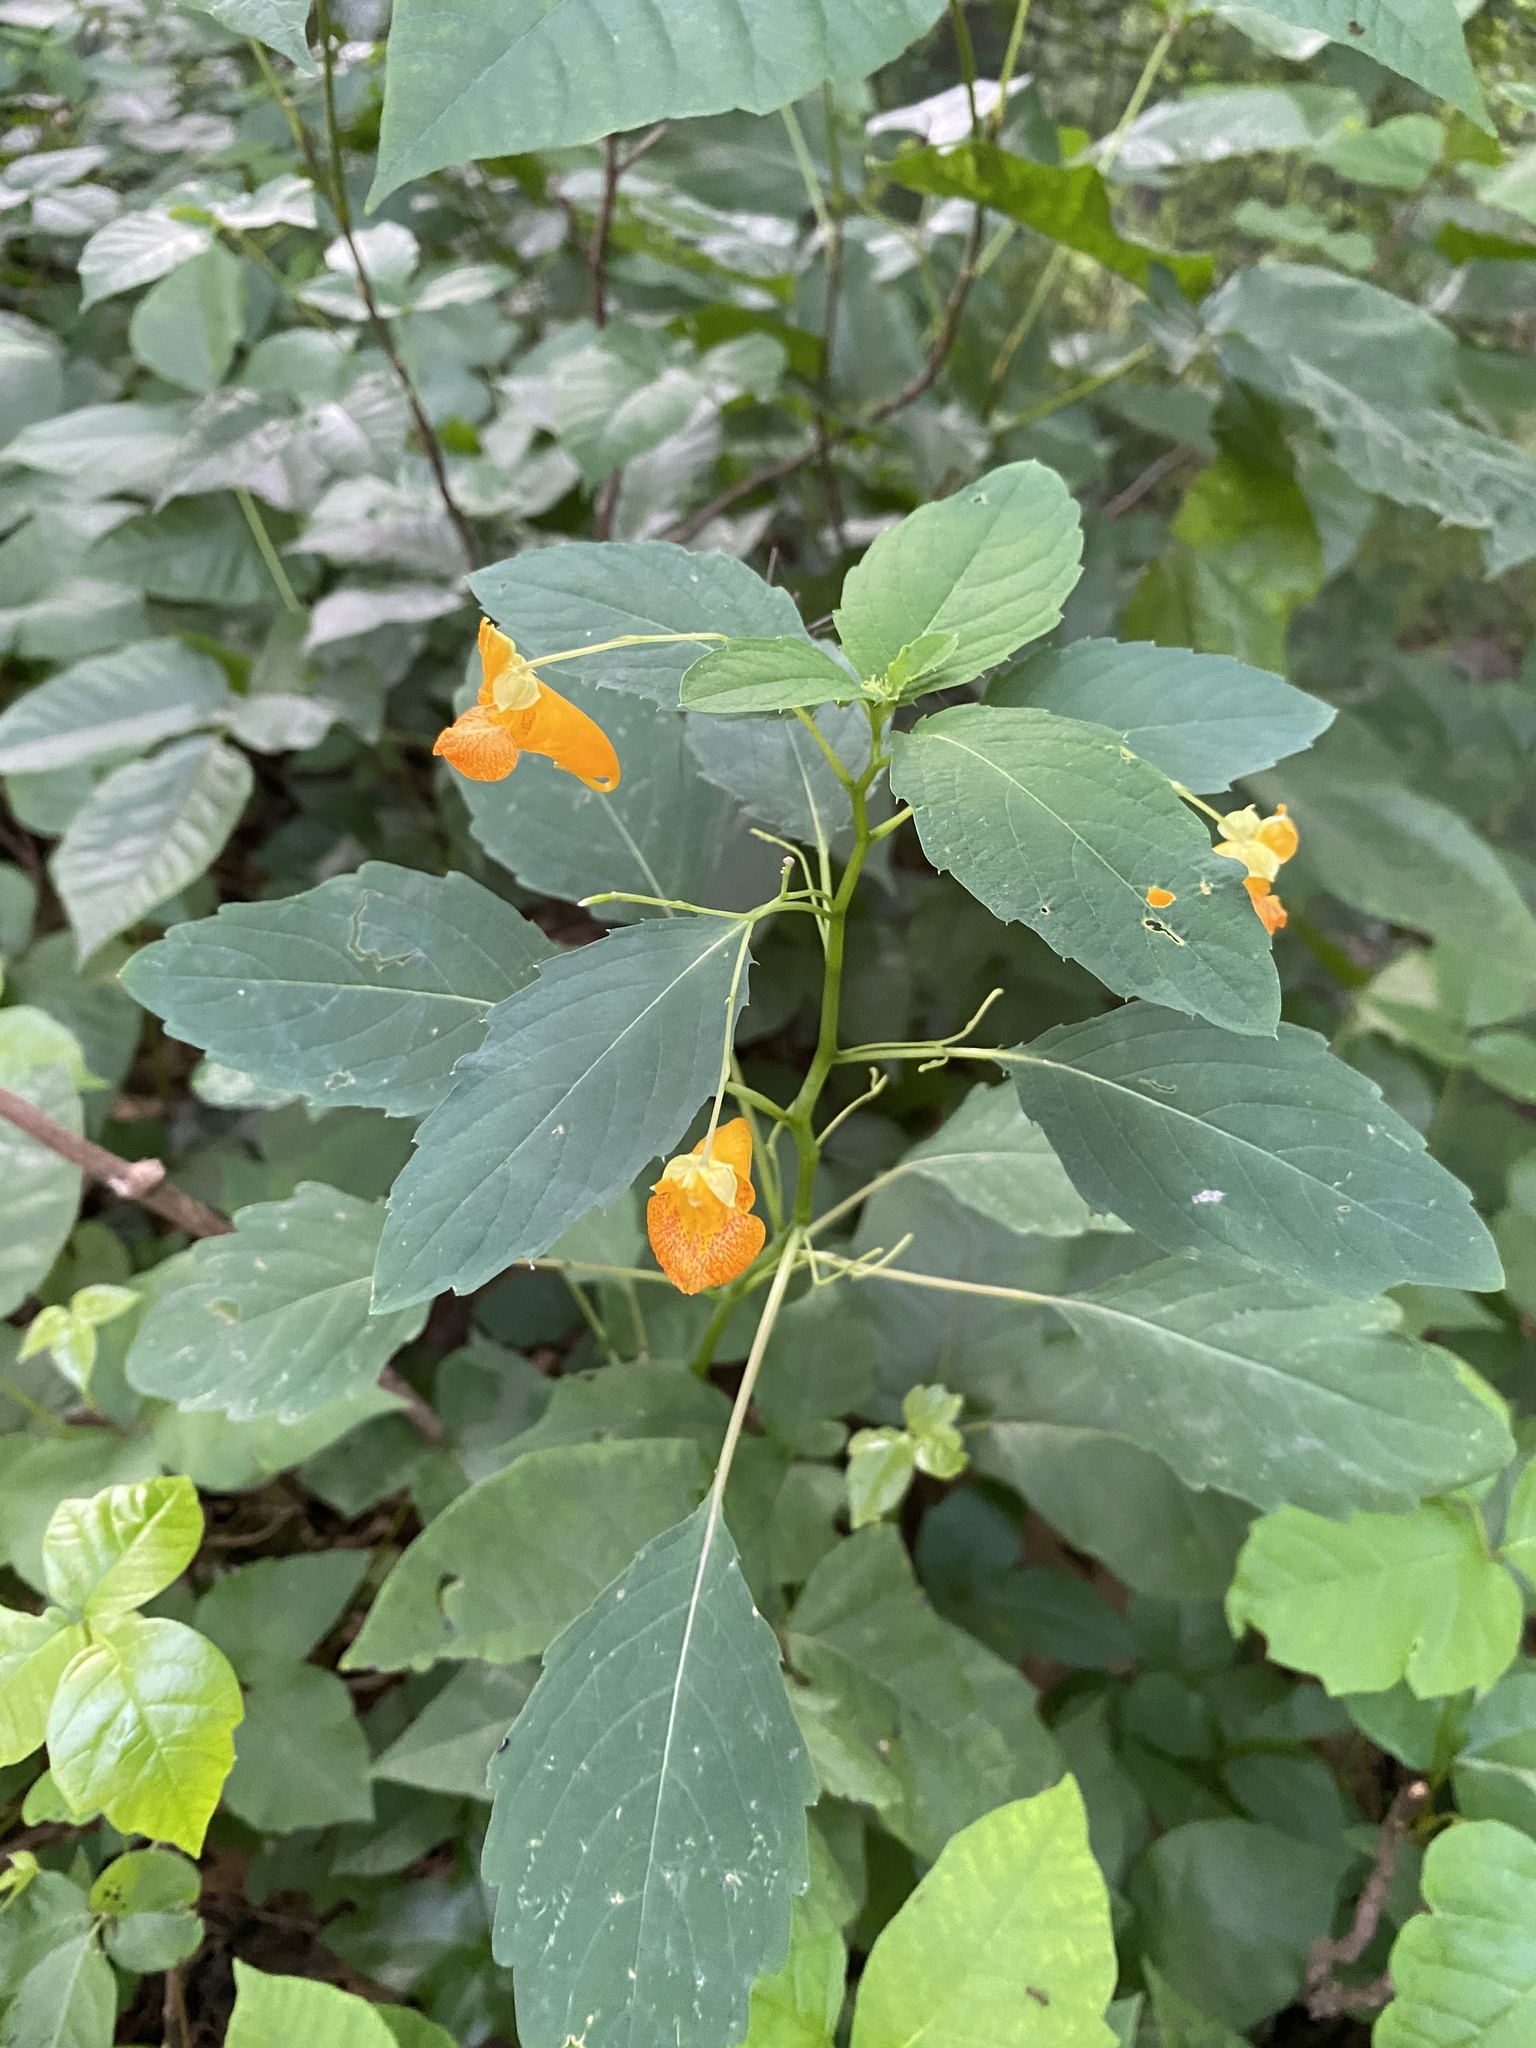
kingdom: Plantae
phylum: Tracheophyta
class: Magnoliopsida
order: Ericales
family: Balsaminaceae
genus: Impatiens
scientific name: Impatiens capensis
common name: Orange balsam
